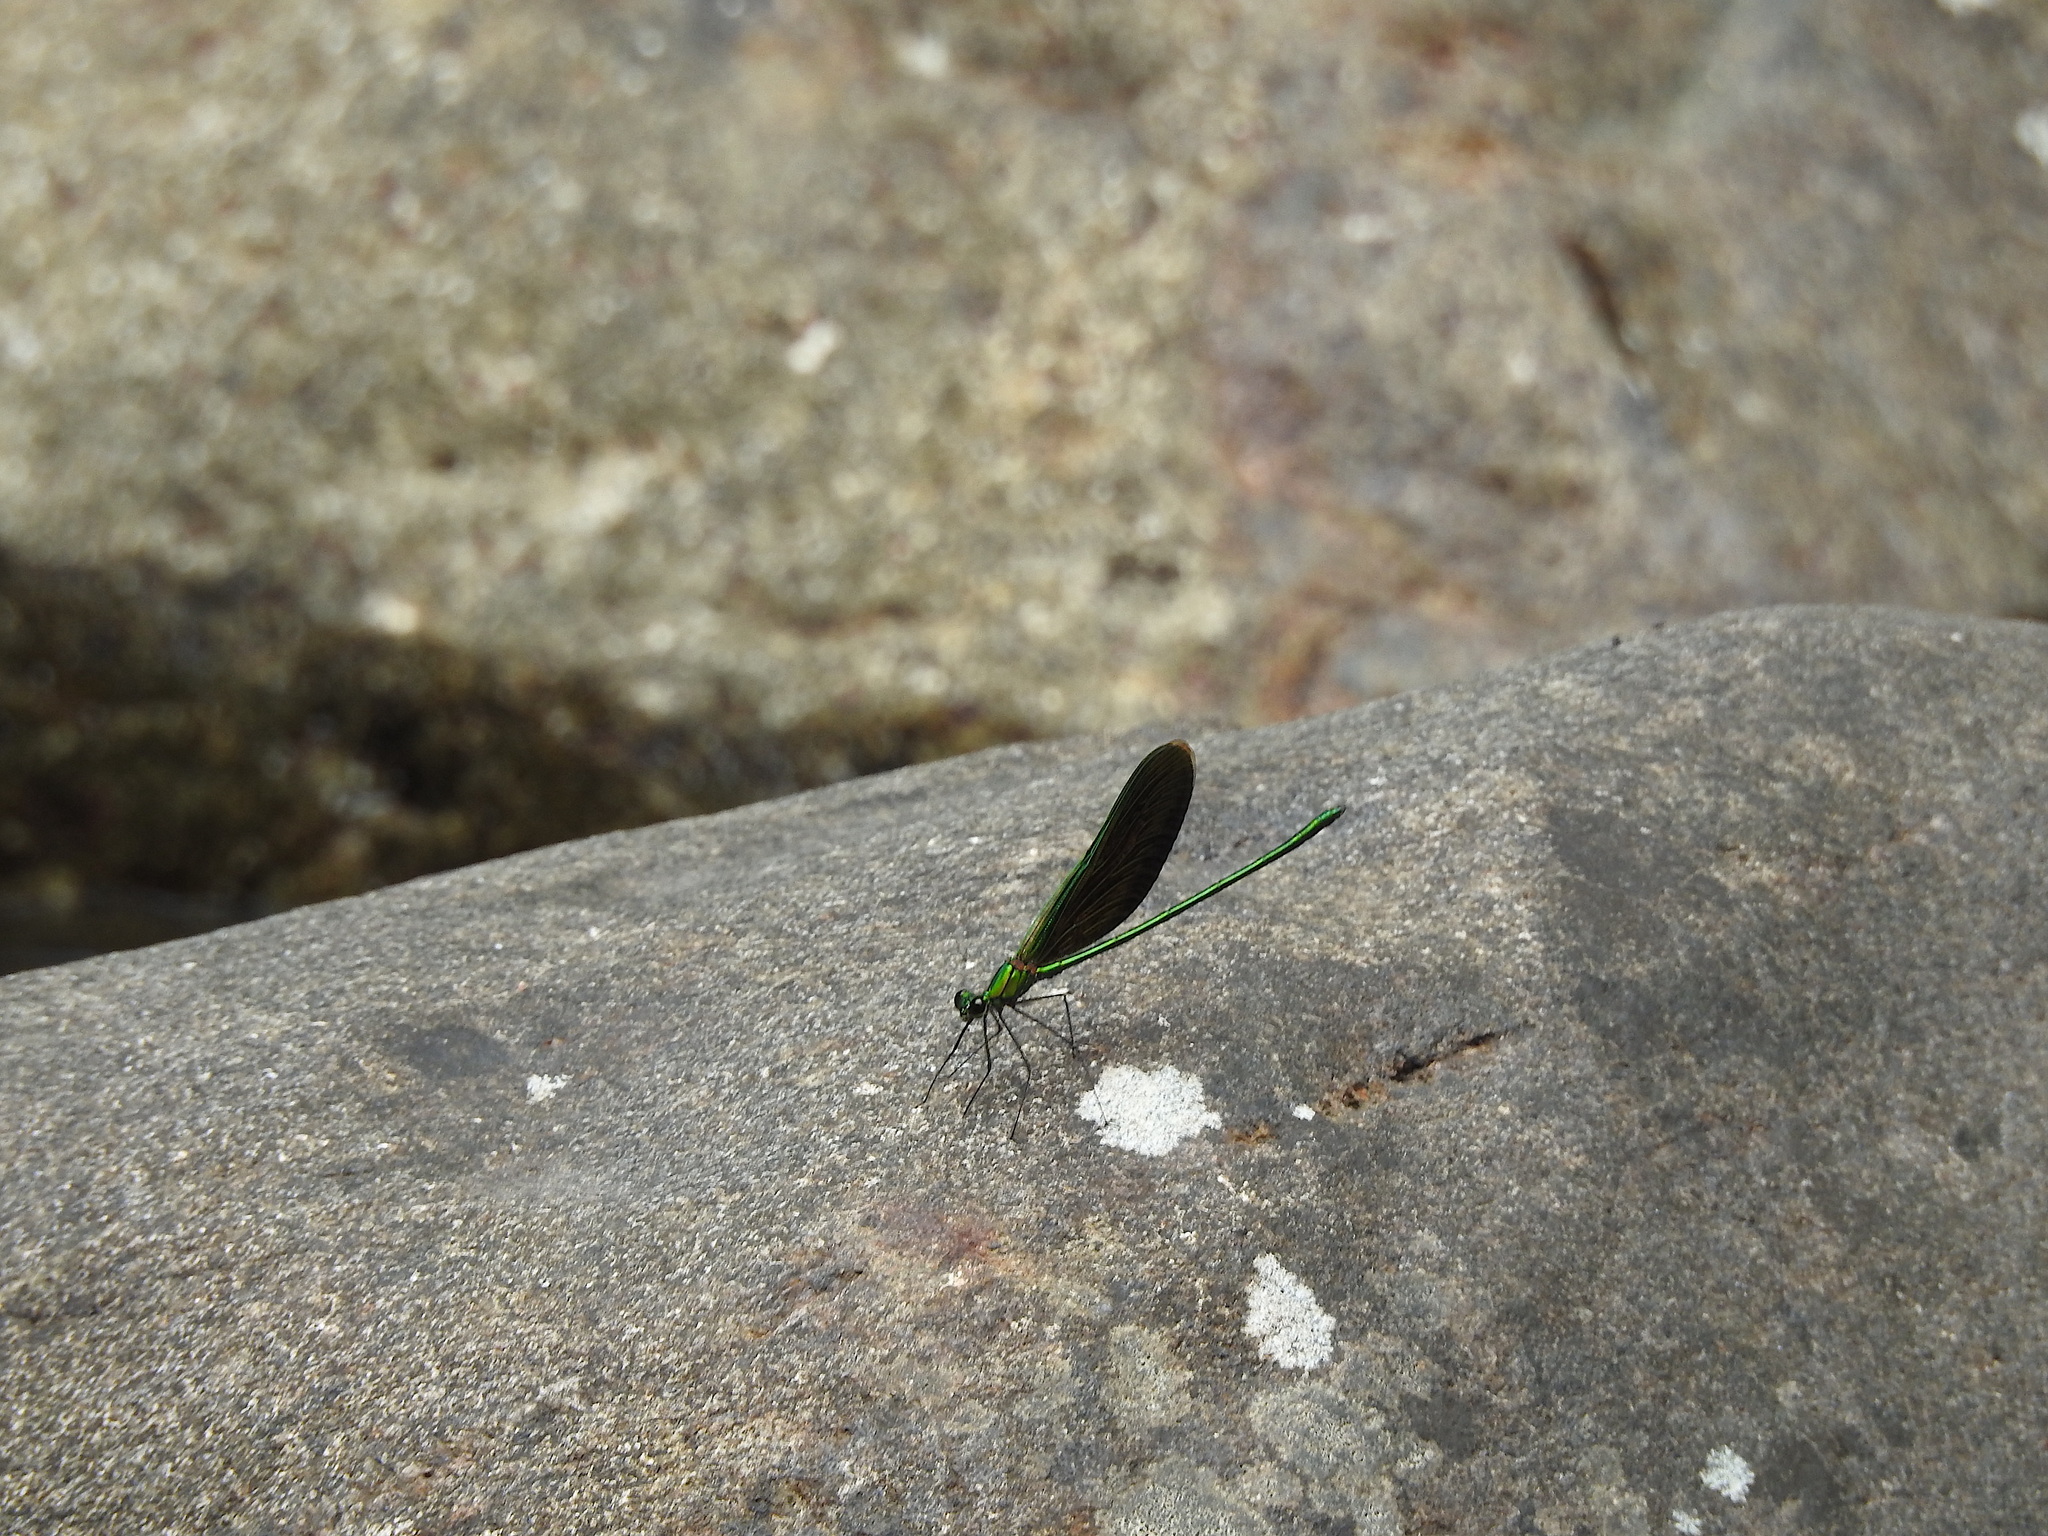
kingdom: Animalia
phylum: Arthropoda
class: Insecta
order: Odonata
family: Calopterygidae
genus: Neurobasis
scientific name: Neurobasis chinensis
